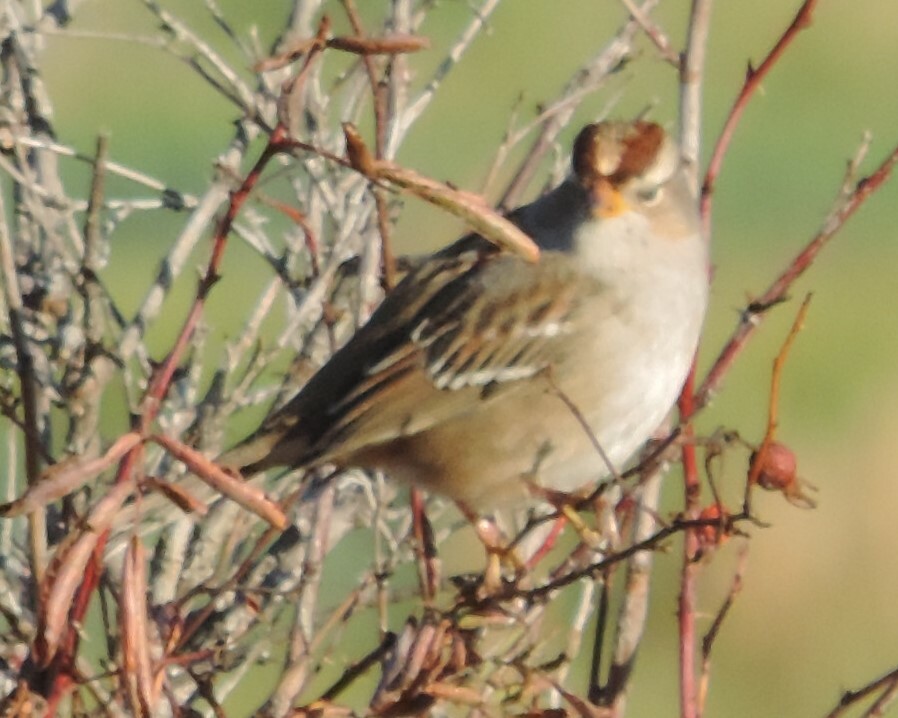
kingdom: Animalia
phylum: Chordata
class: Aves
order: Passeriformes
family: Passerellidae
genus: Zonotrichia
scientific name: Zonotrichia leucophrys
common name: White-crowned sparrow
